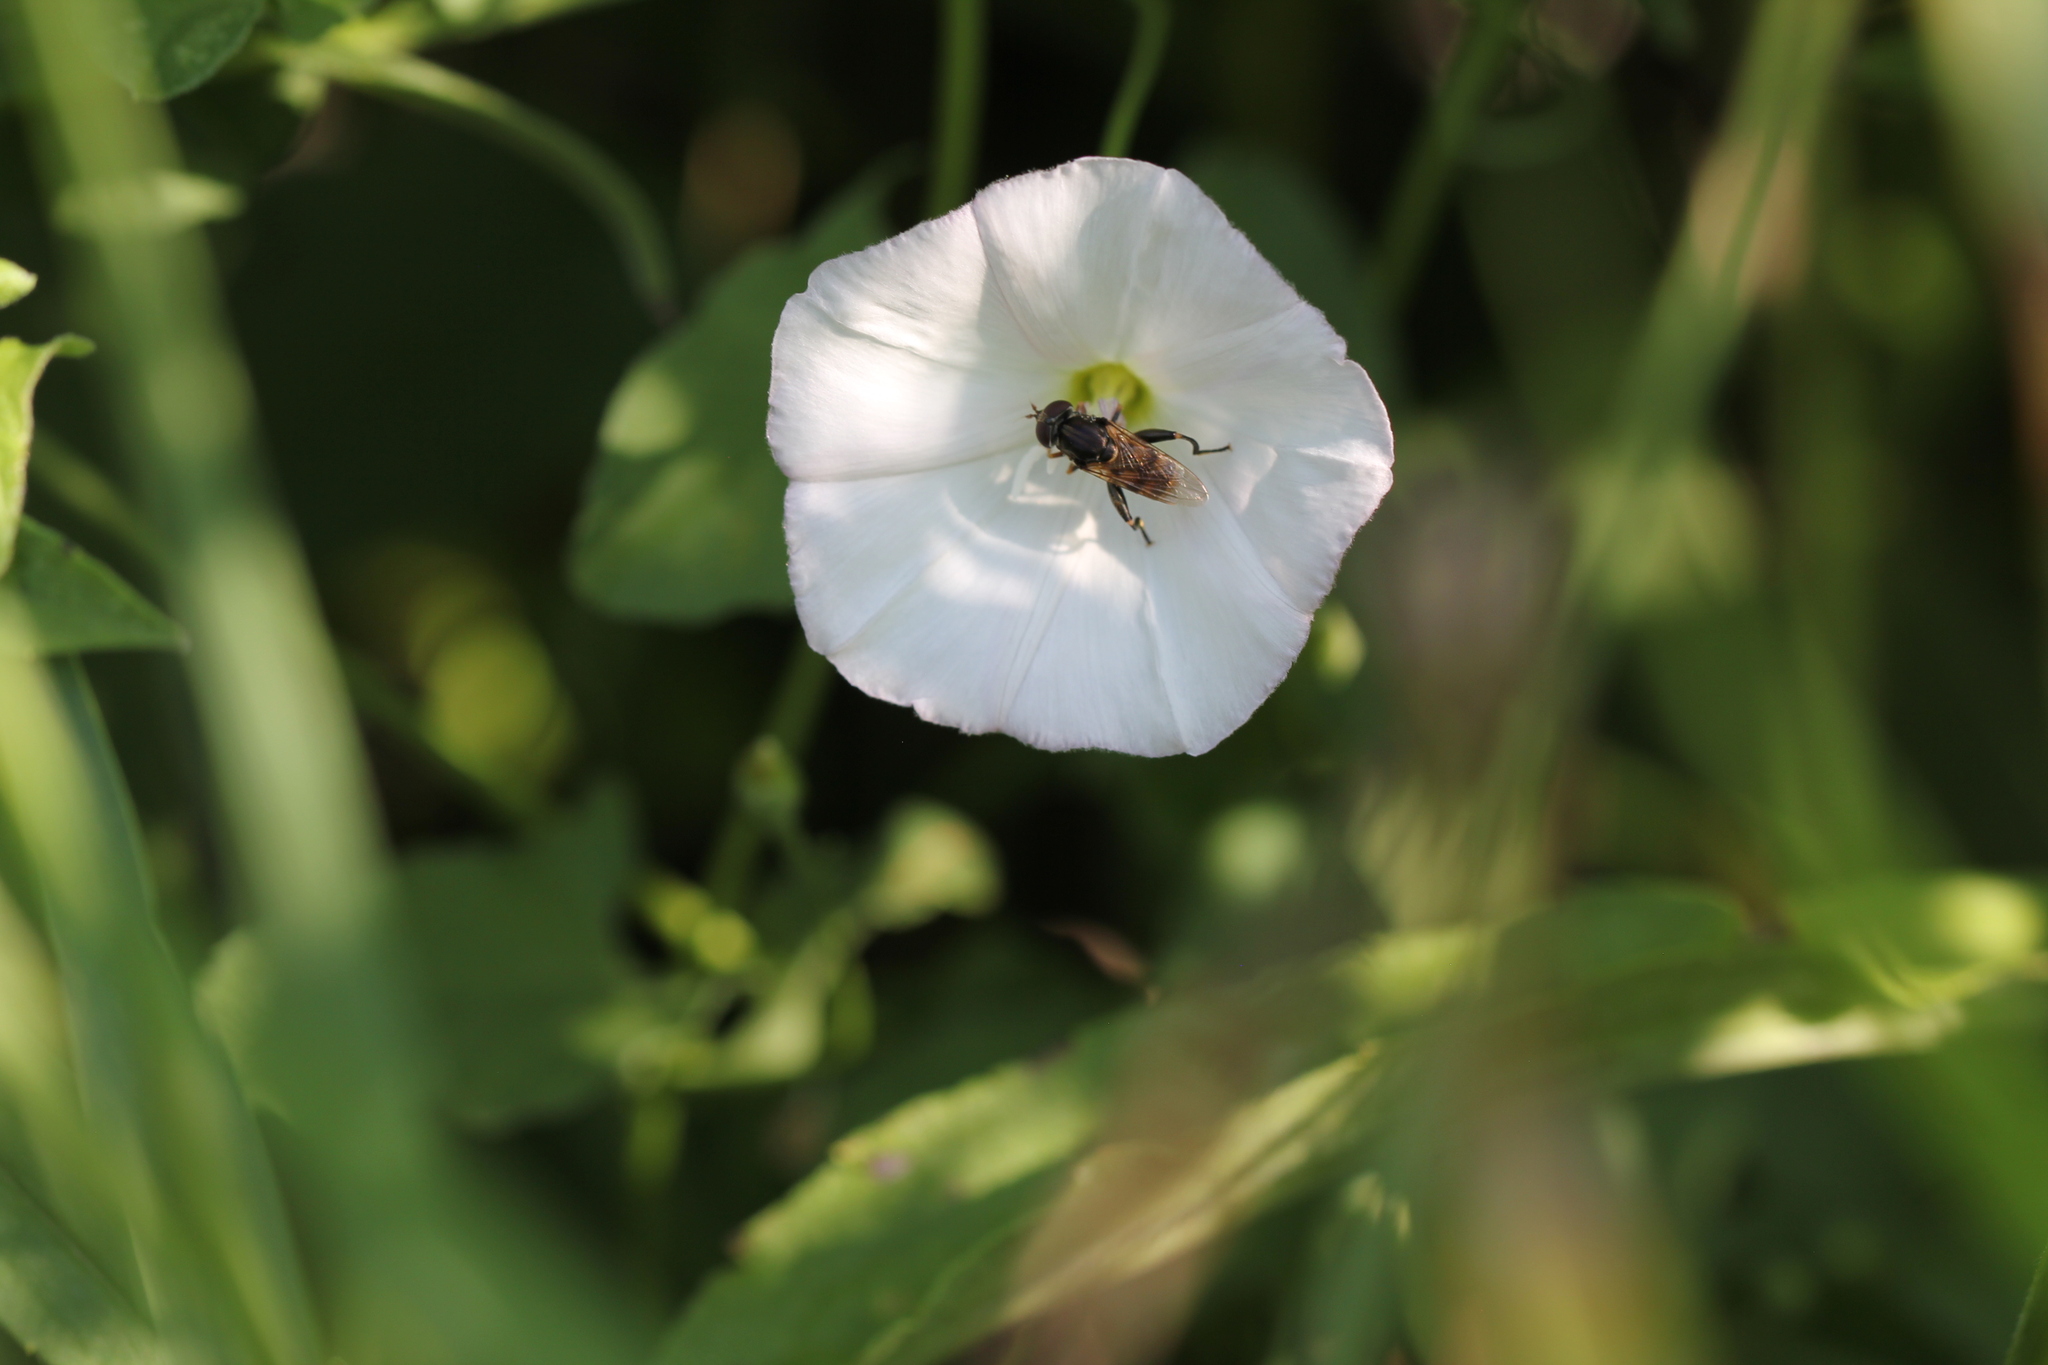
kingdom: Animalia
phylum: Arthropoda
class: Insecta
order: Diptera
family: Syrphidae
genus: Tropidia
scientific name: Tropidia quadrata
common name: Common thick-legged fly
